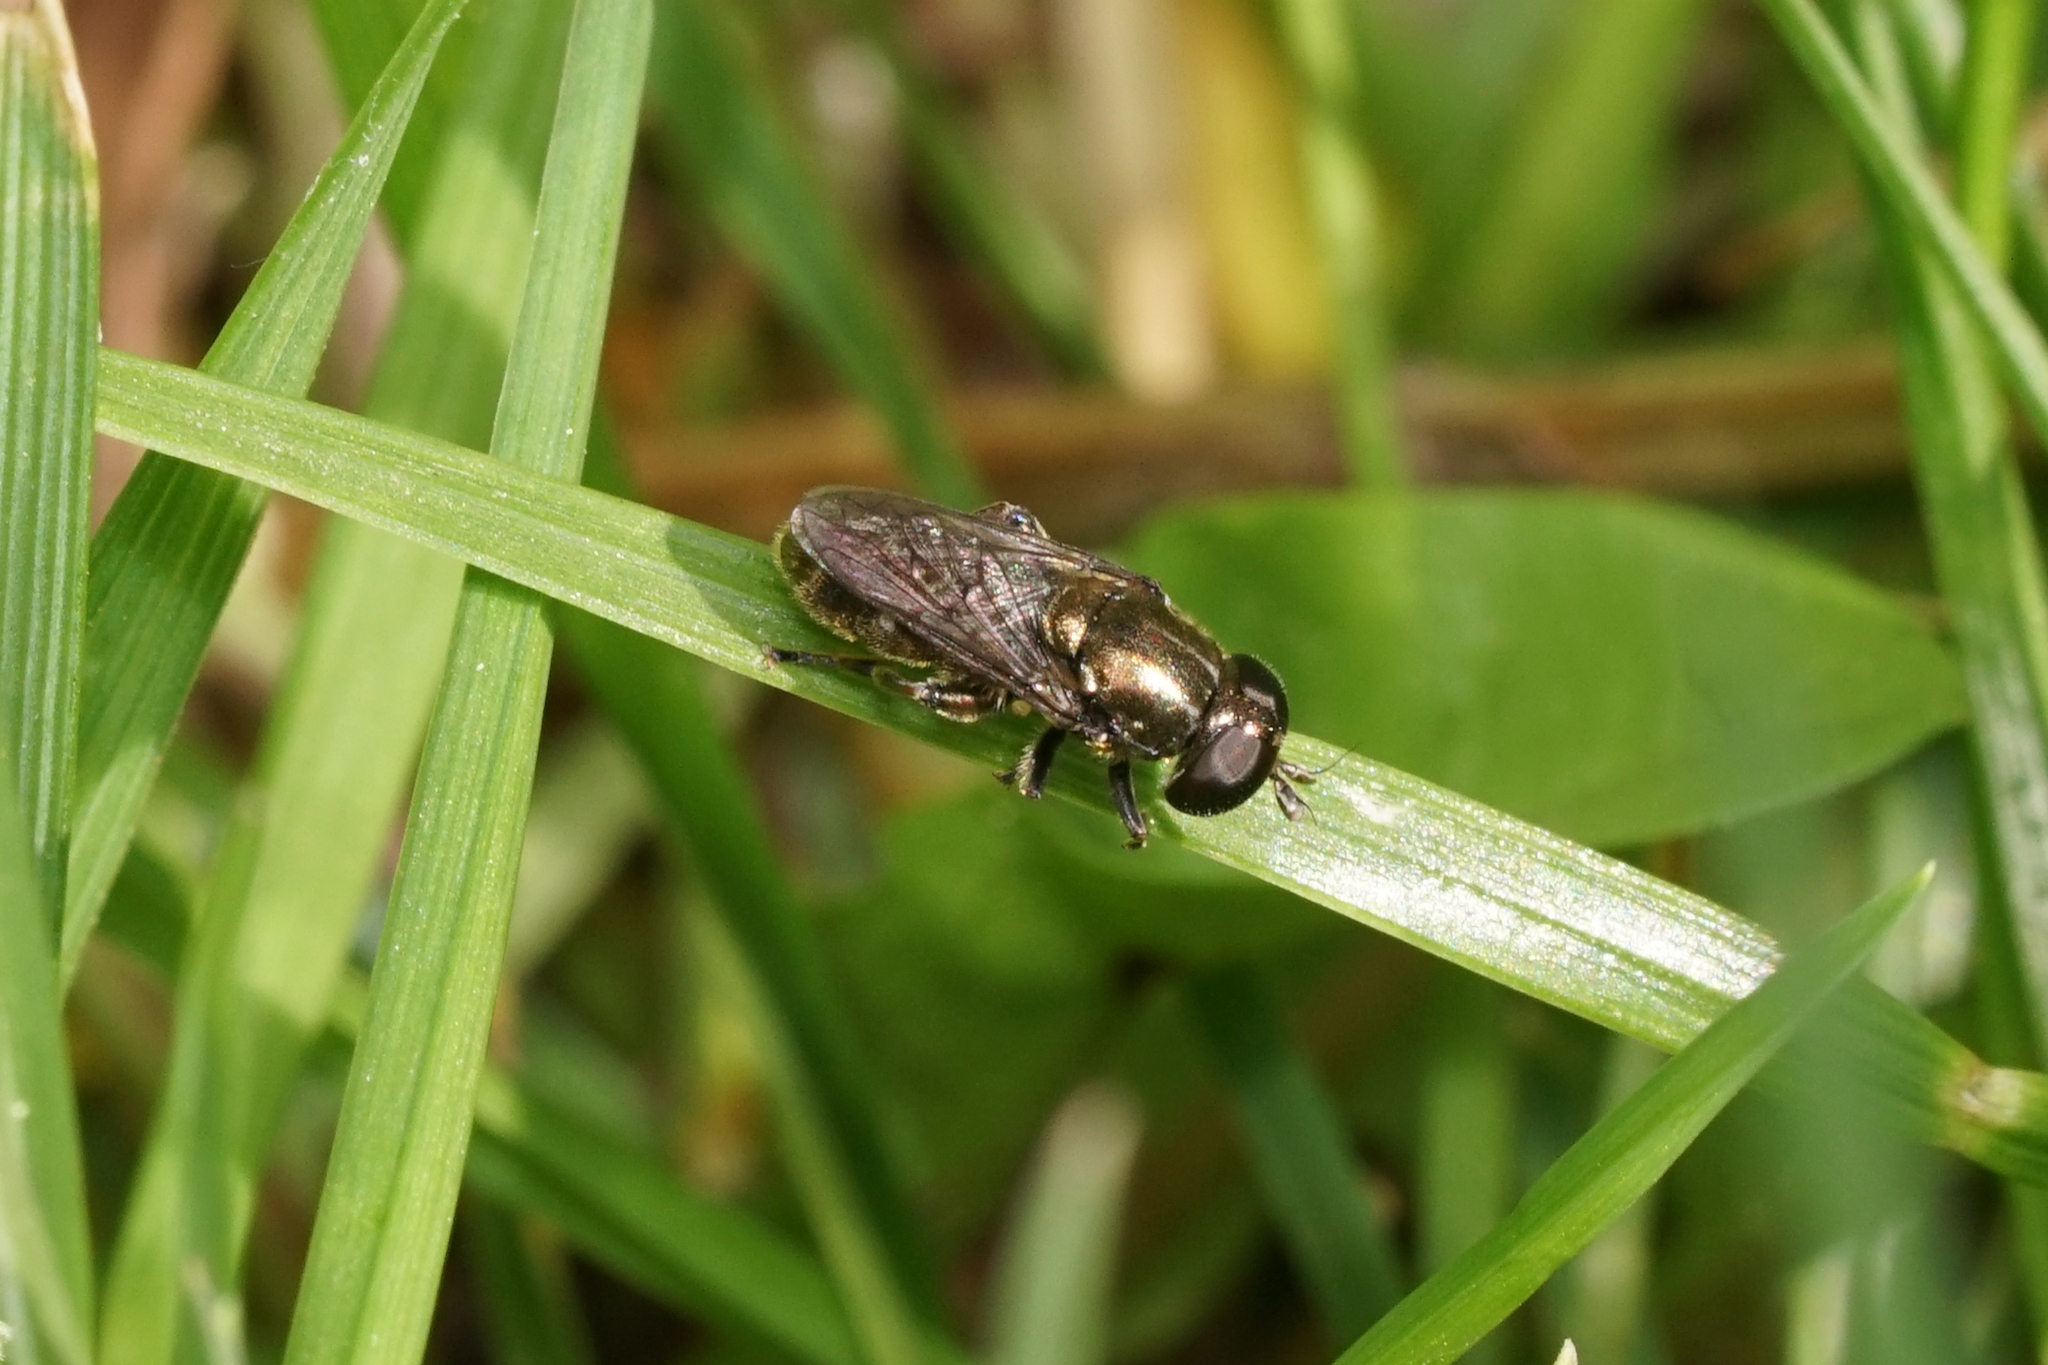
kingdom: Animalia
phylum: Arthropoda
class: Insecta
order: Diptera
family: Syrphidae
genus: Eumerus
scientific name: Eumerus
